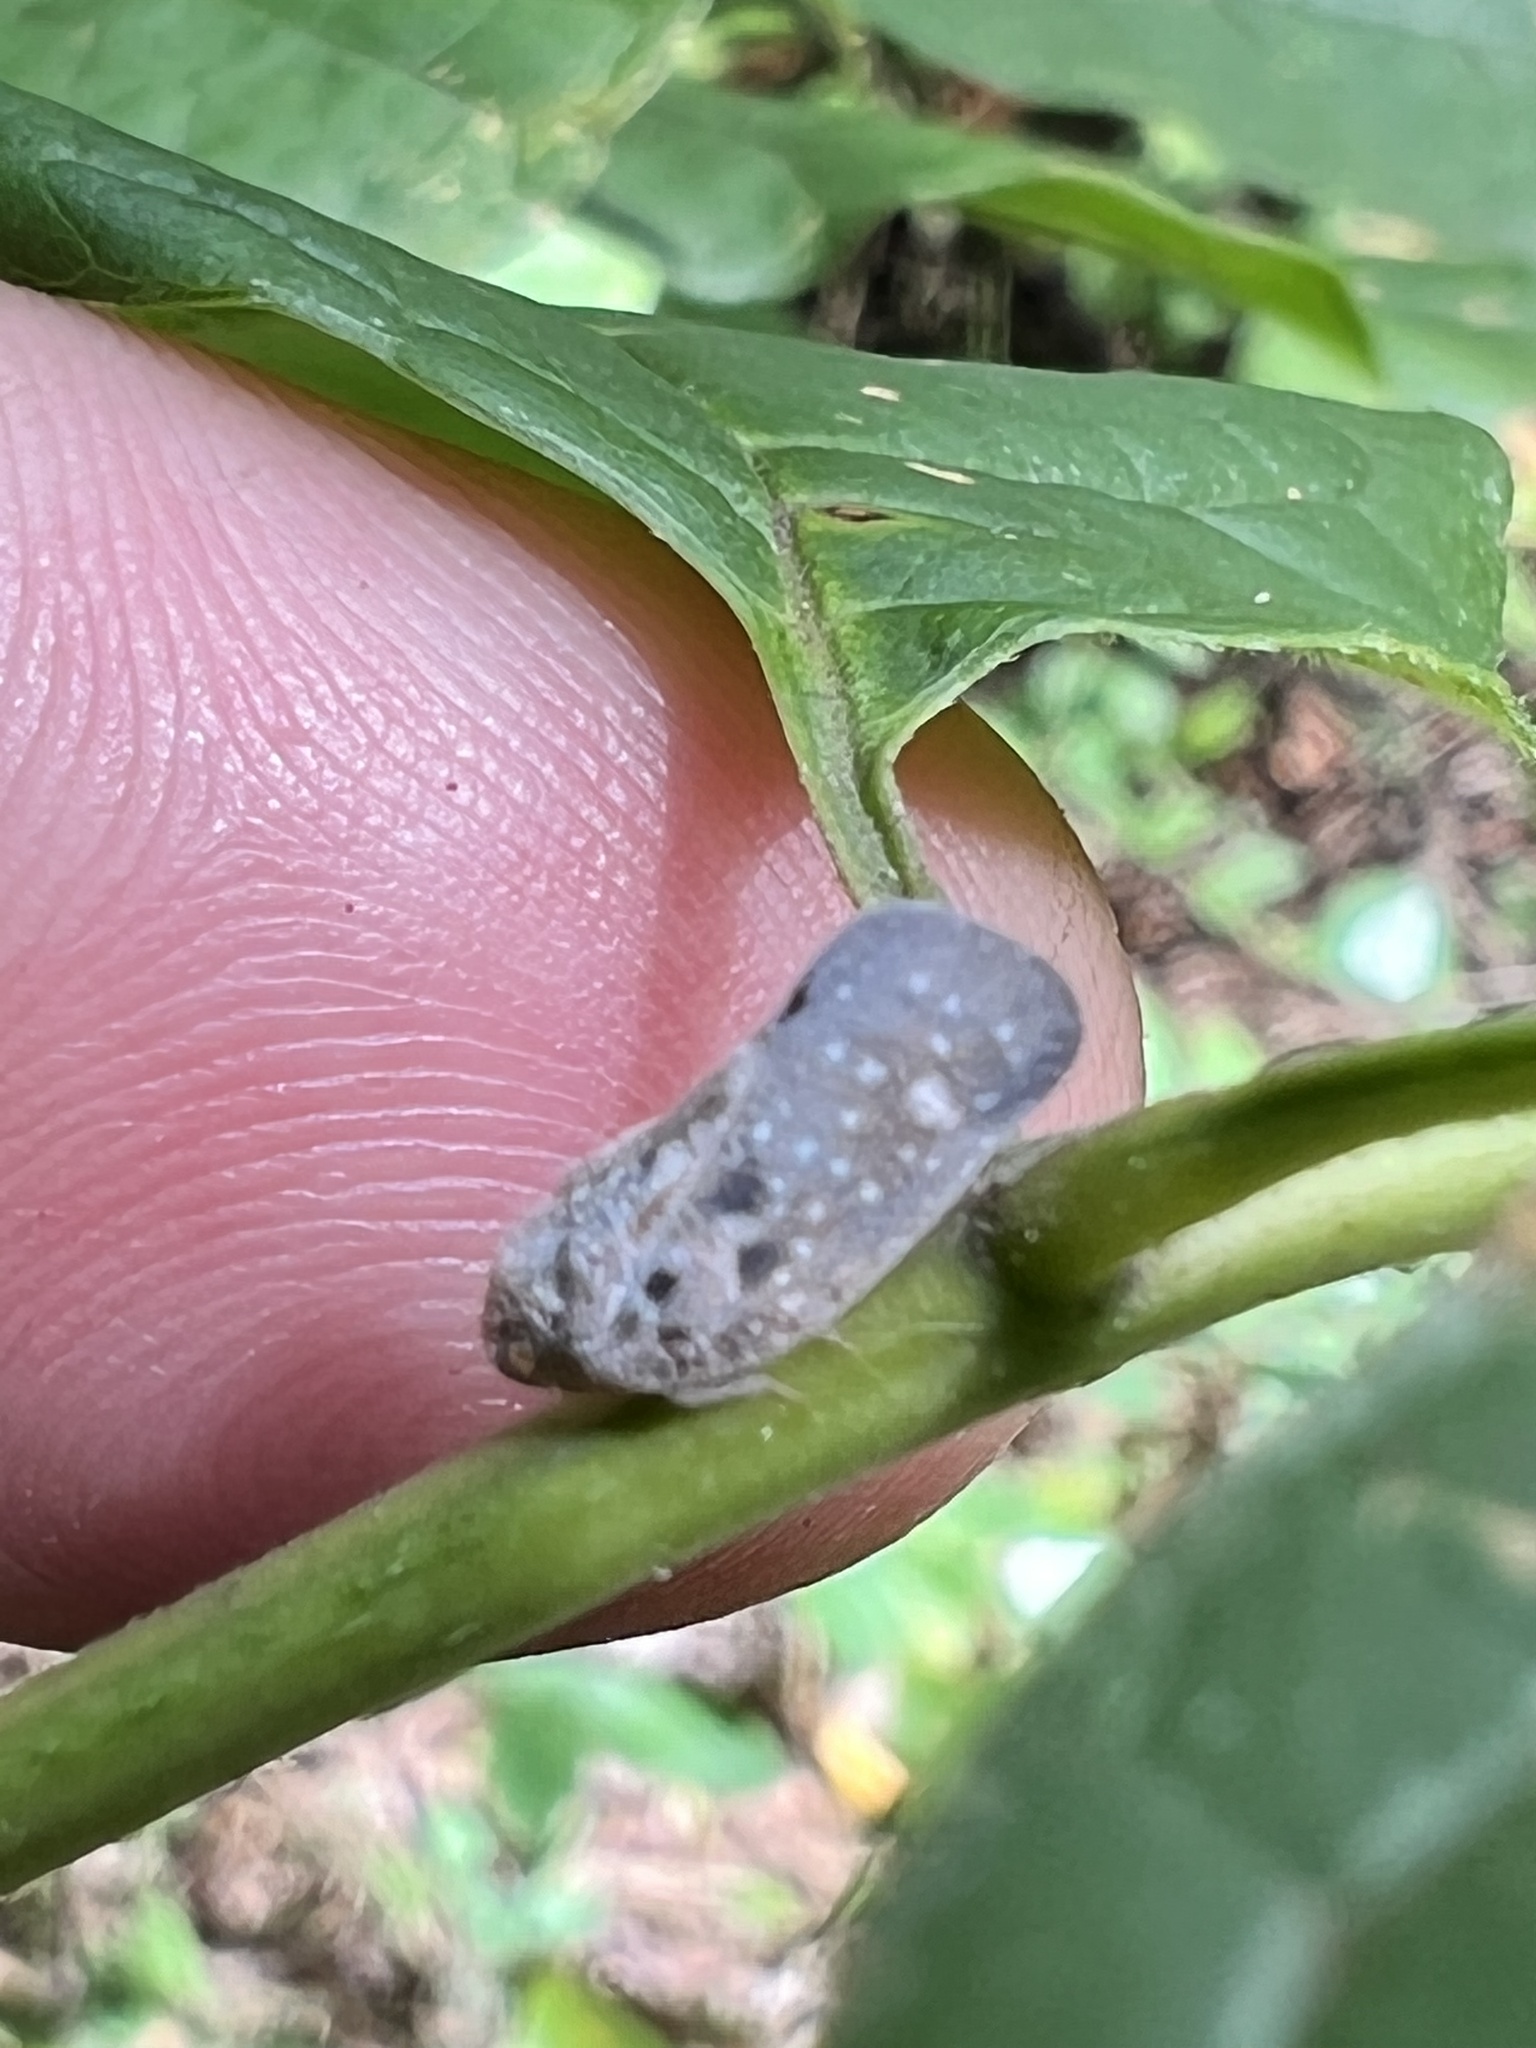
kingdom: Animalia
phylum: Arthropoda
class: Insecta
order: Hemiptera
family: Flatidae
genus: Metcalfa
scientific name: Metcalfa pruinosa
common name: Citrus flatid planthopper
